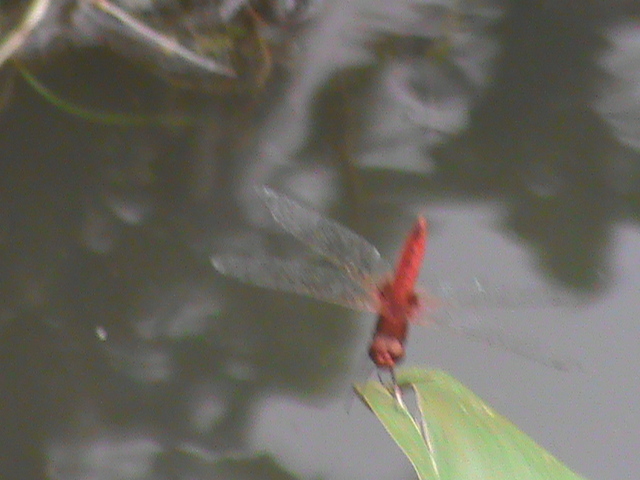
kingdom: Animalia
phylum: Arthropoda
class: Insecta
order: Odonata
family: Libellulidae
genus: Urothemis
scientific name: Urothemis signata
